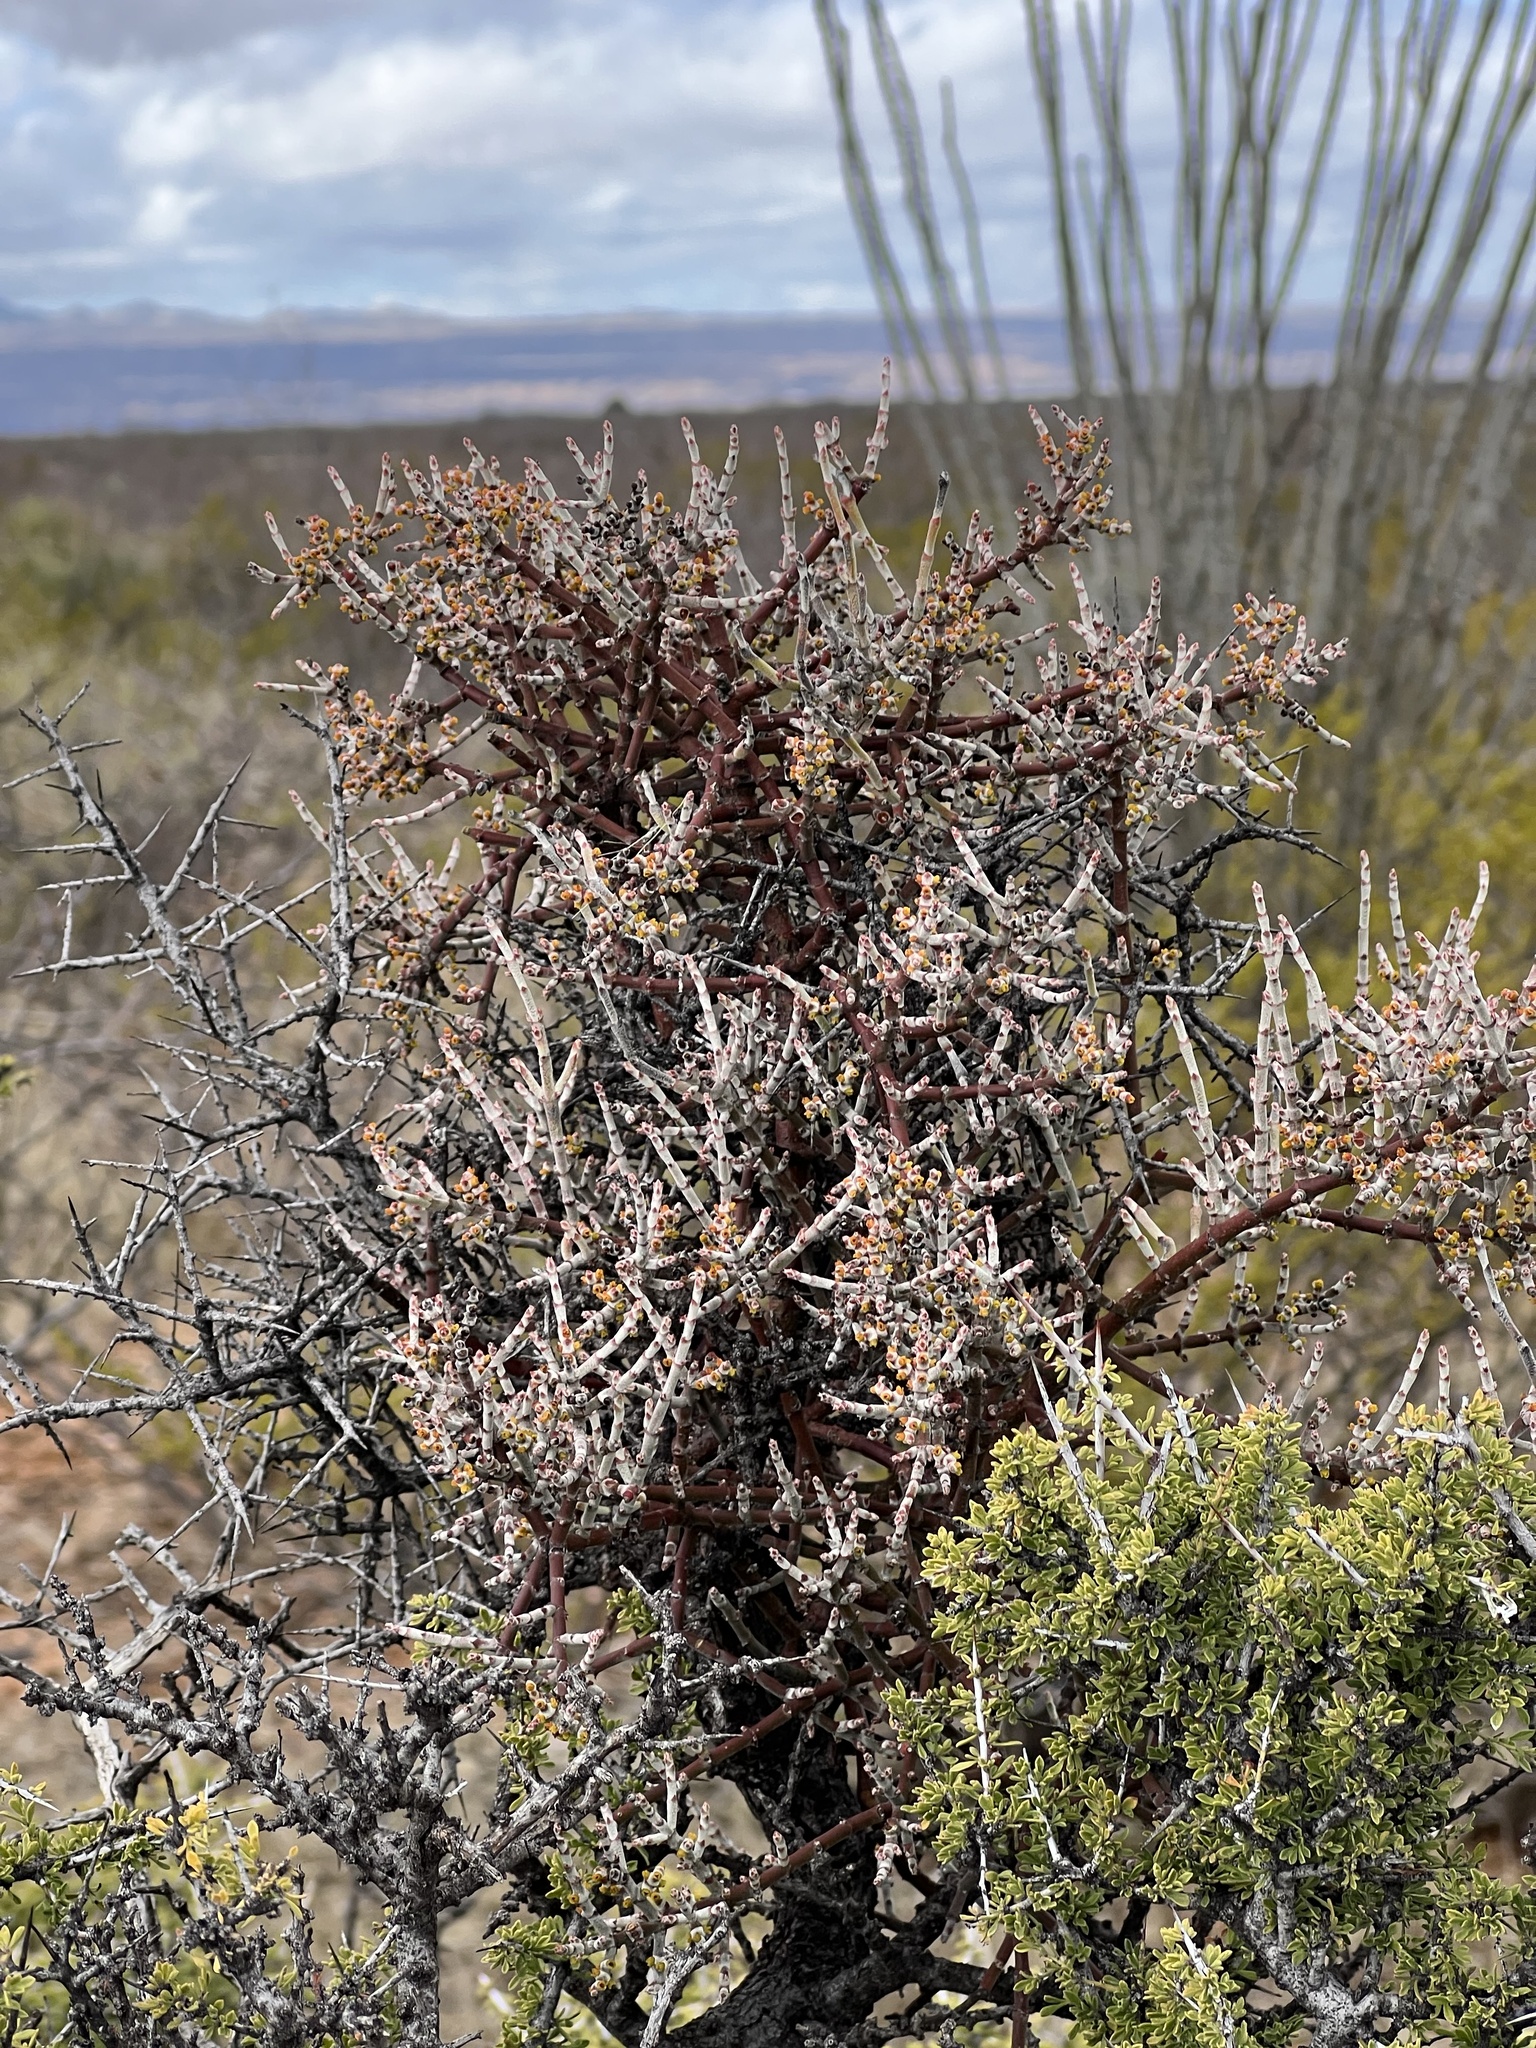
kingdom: Plantae
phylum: Tracheophyta
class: Magnoliopsida
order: Santalales
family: Viscaceae
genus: Phoradendron
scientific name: Phoradendron californicum
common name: Acacia mistletoe
